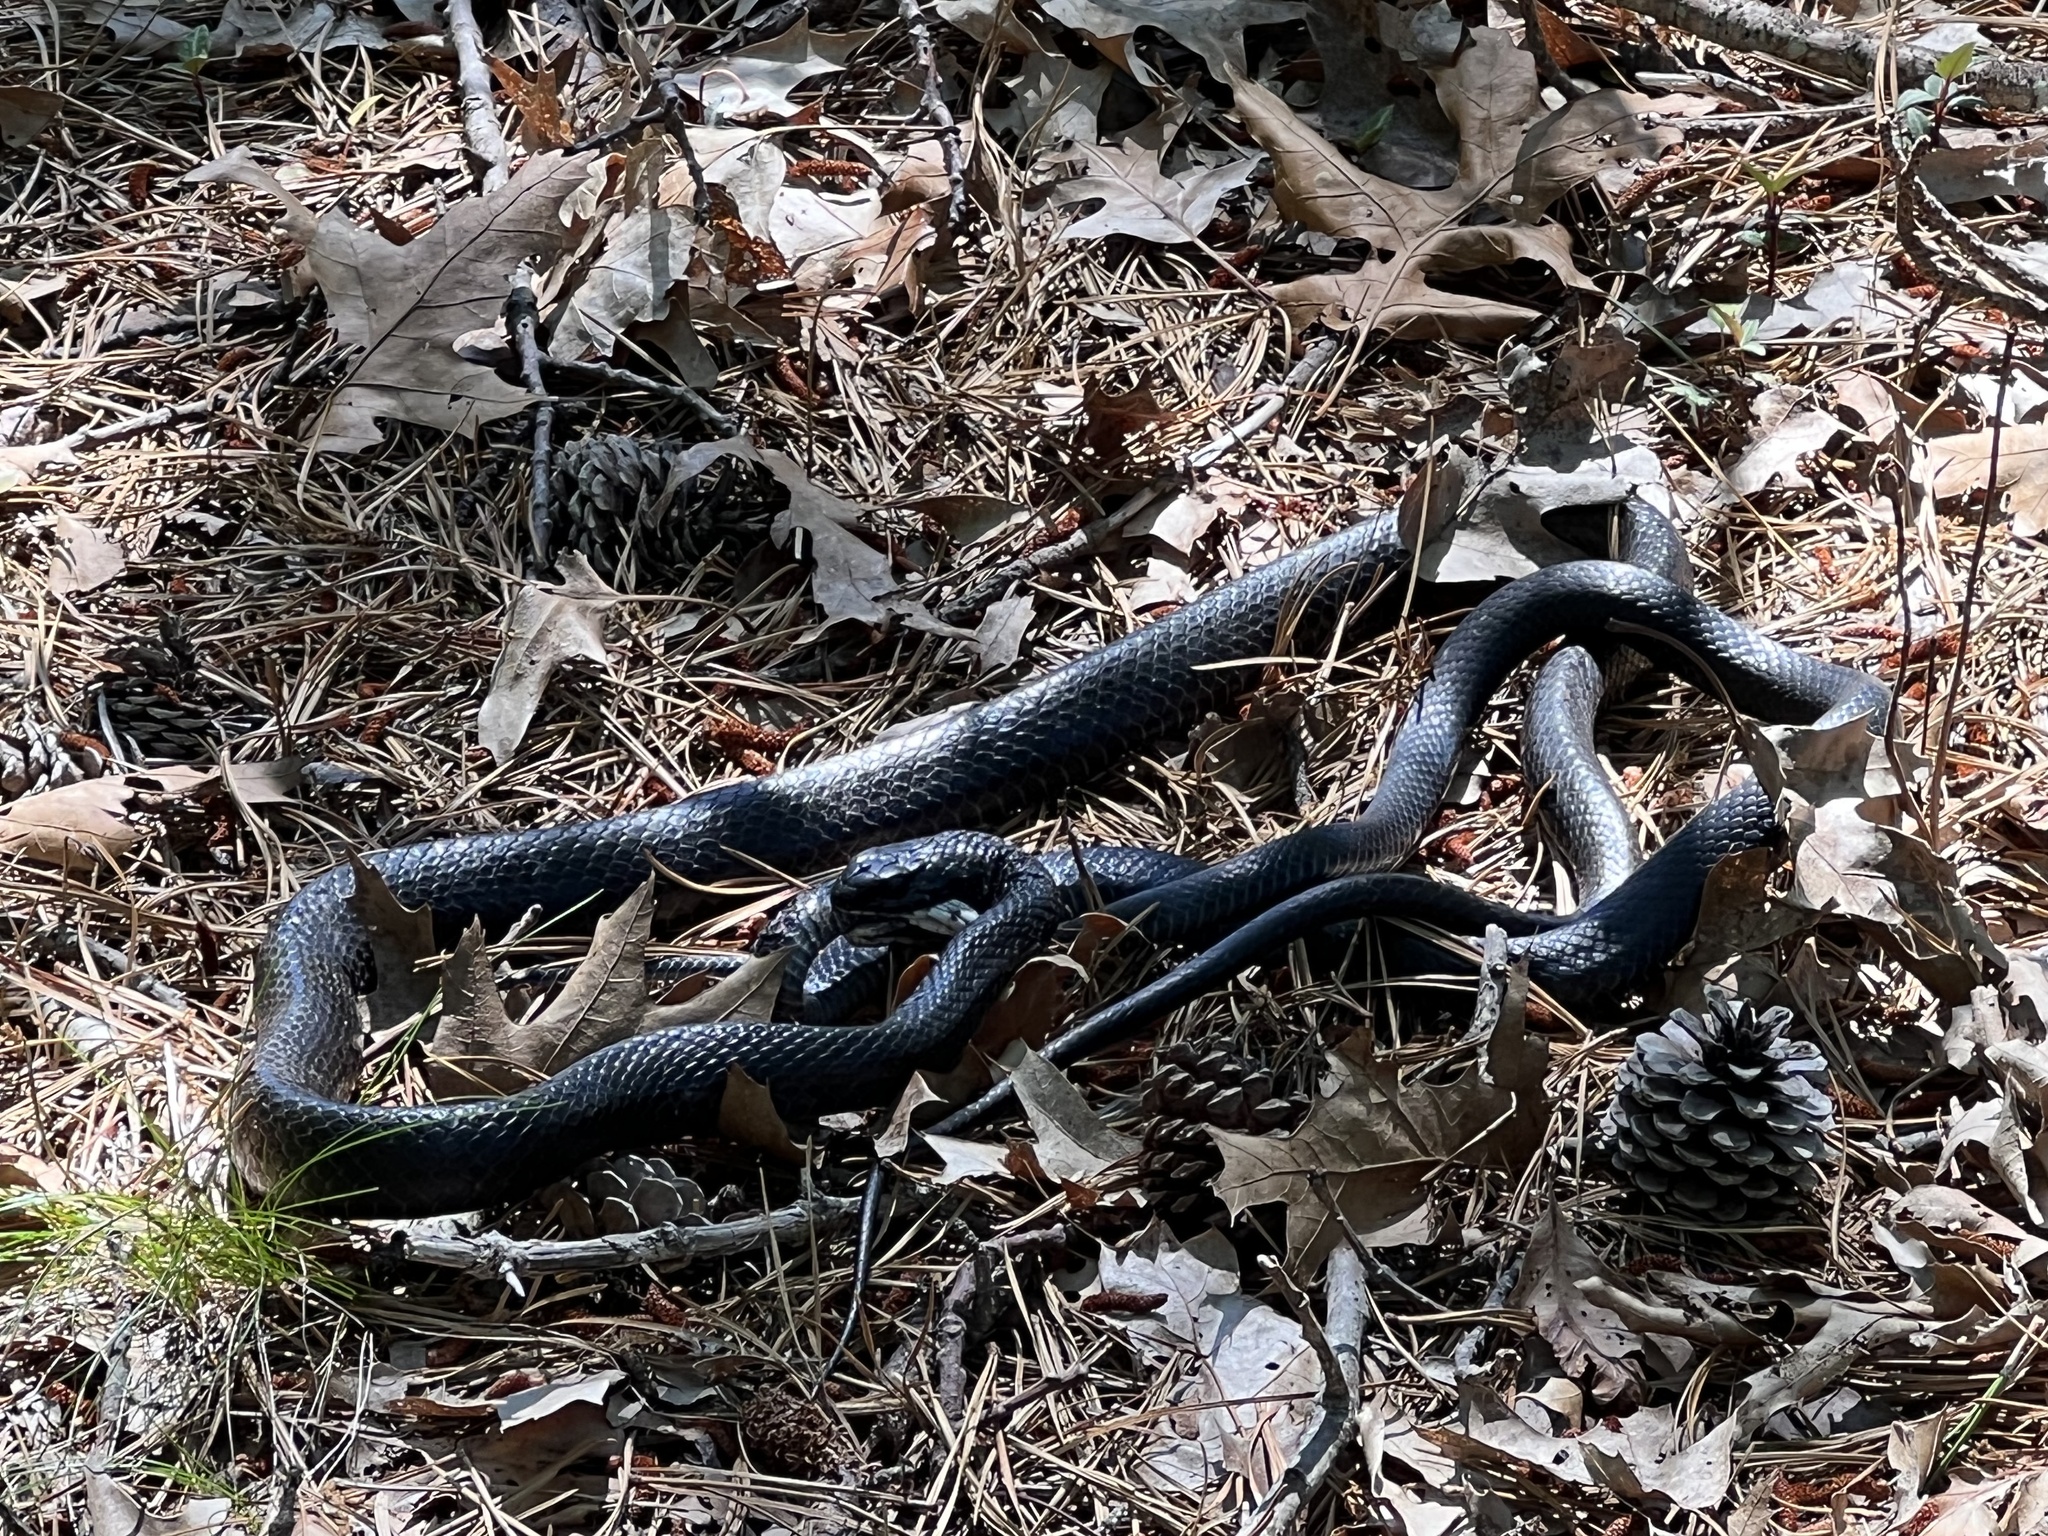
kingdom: Animalia
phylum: Chordata
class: Squamata
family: Colubridae
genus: Coluber
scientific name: Coluber constrictor
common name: Eastern racer
